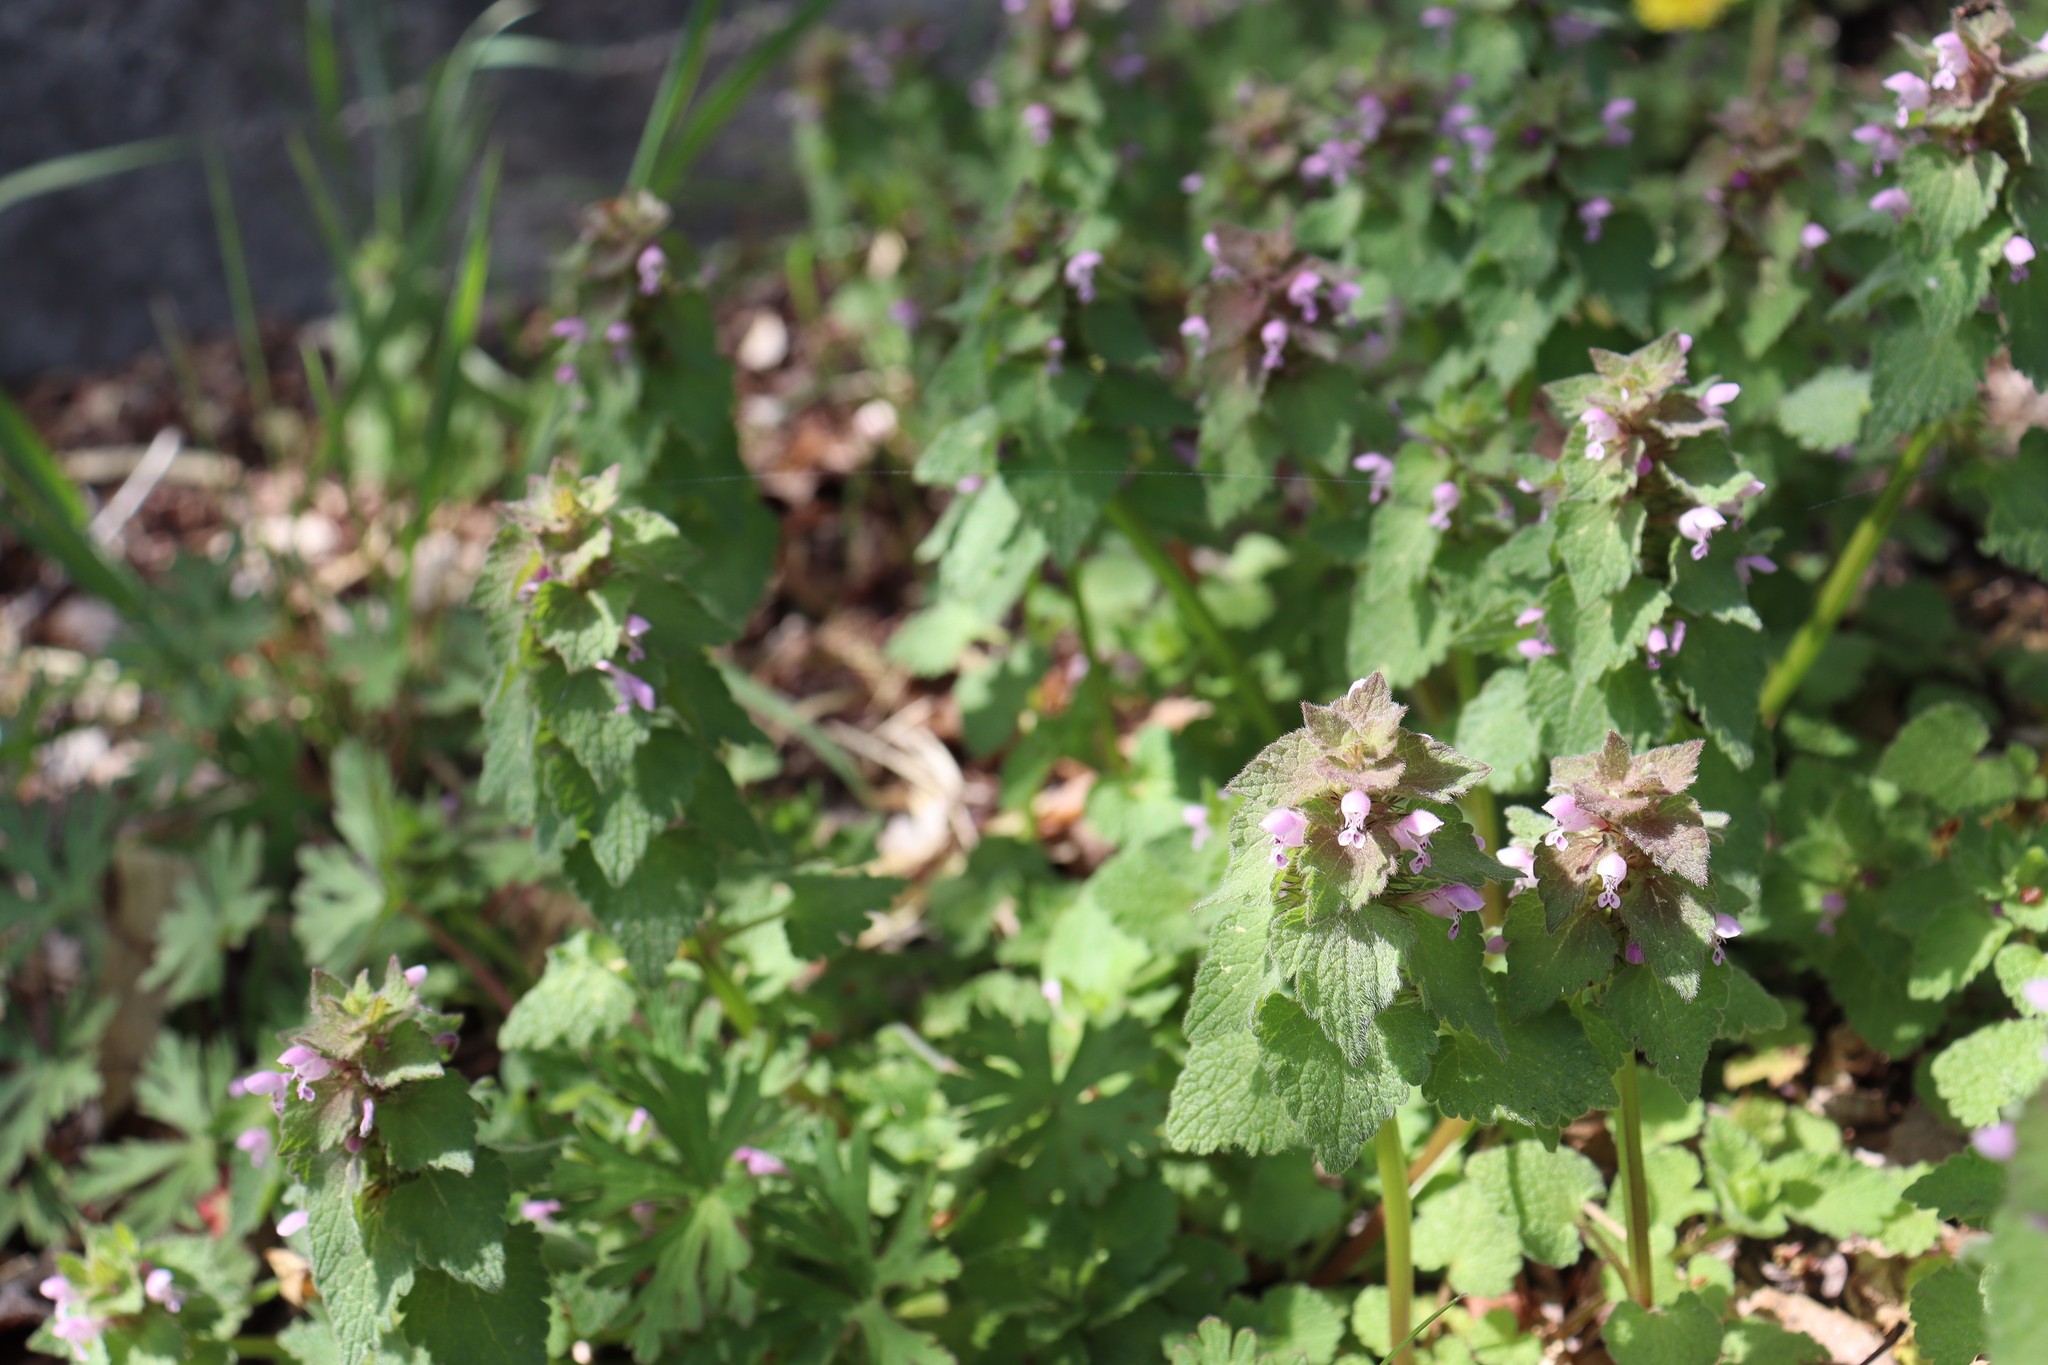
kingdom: Plantae
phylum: Tracheophyta
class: Magnoliopsida
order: Lamiales
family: Lamiaceae
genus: Lamium
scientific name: Lamium purpureum
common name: Red dead-nettle
